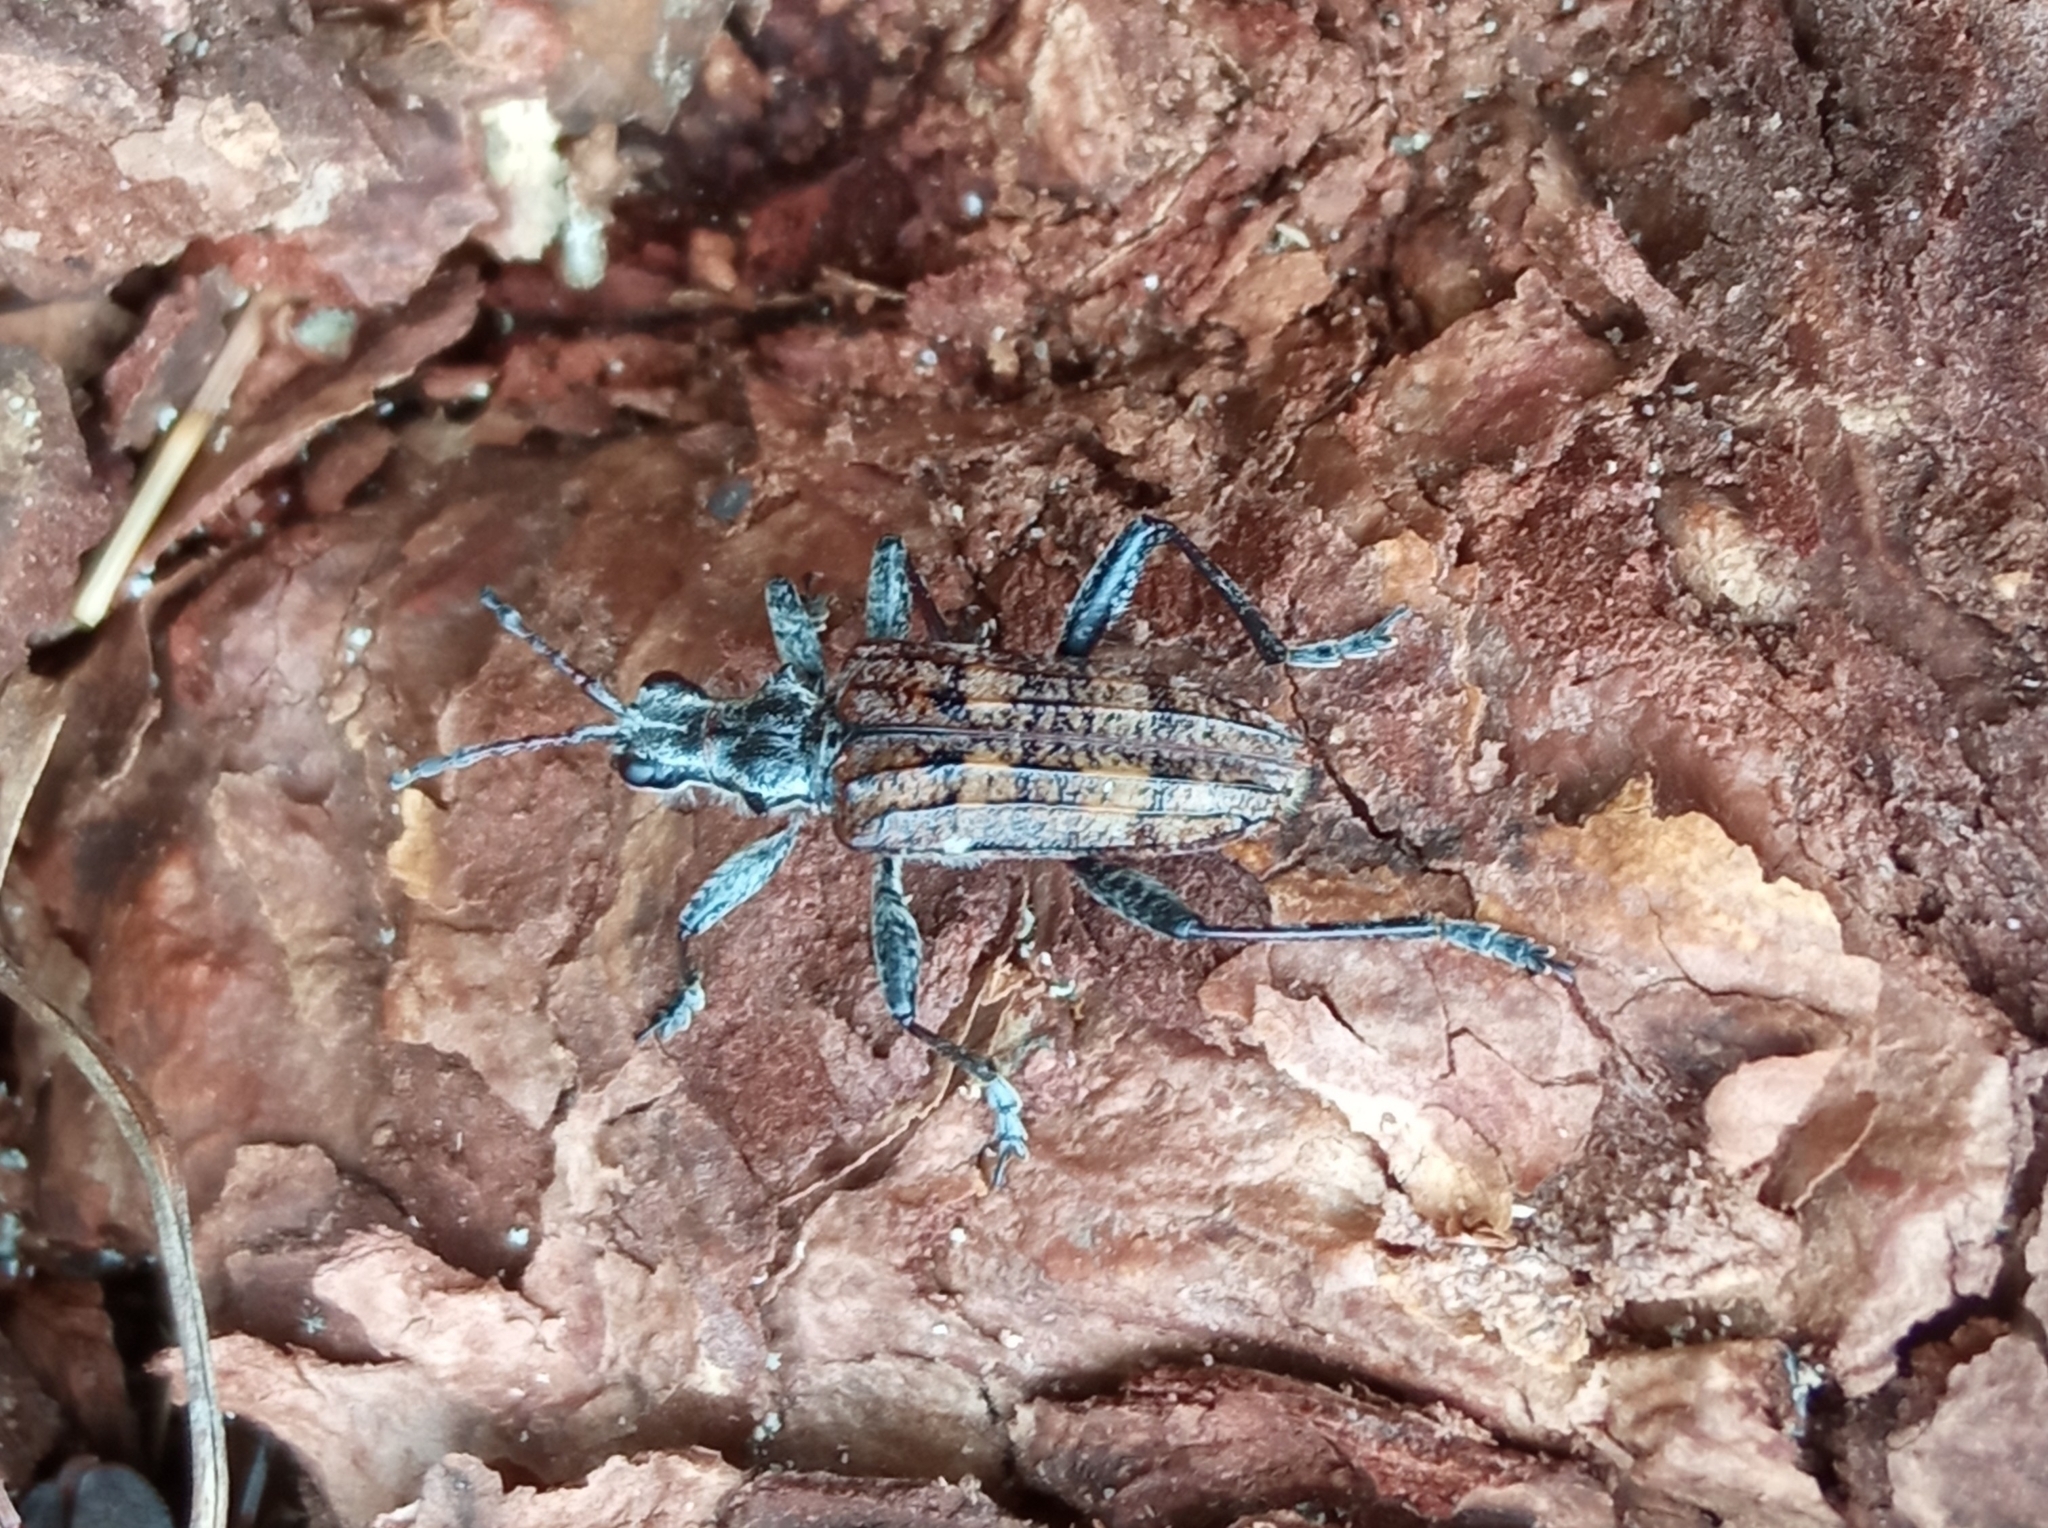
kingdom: Animalia
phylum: Arthropoda
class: Insecta
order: Coleoptera
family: Cerambycidae
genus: Rhagium
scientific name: Rhagium inquisitor
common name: Ribbed pine borer
